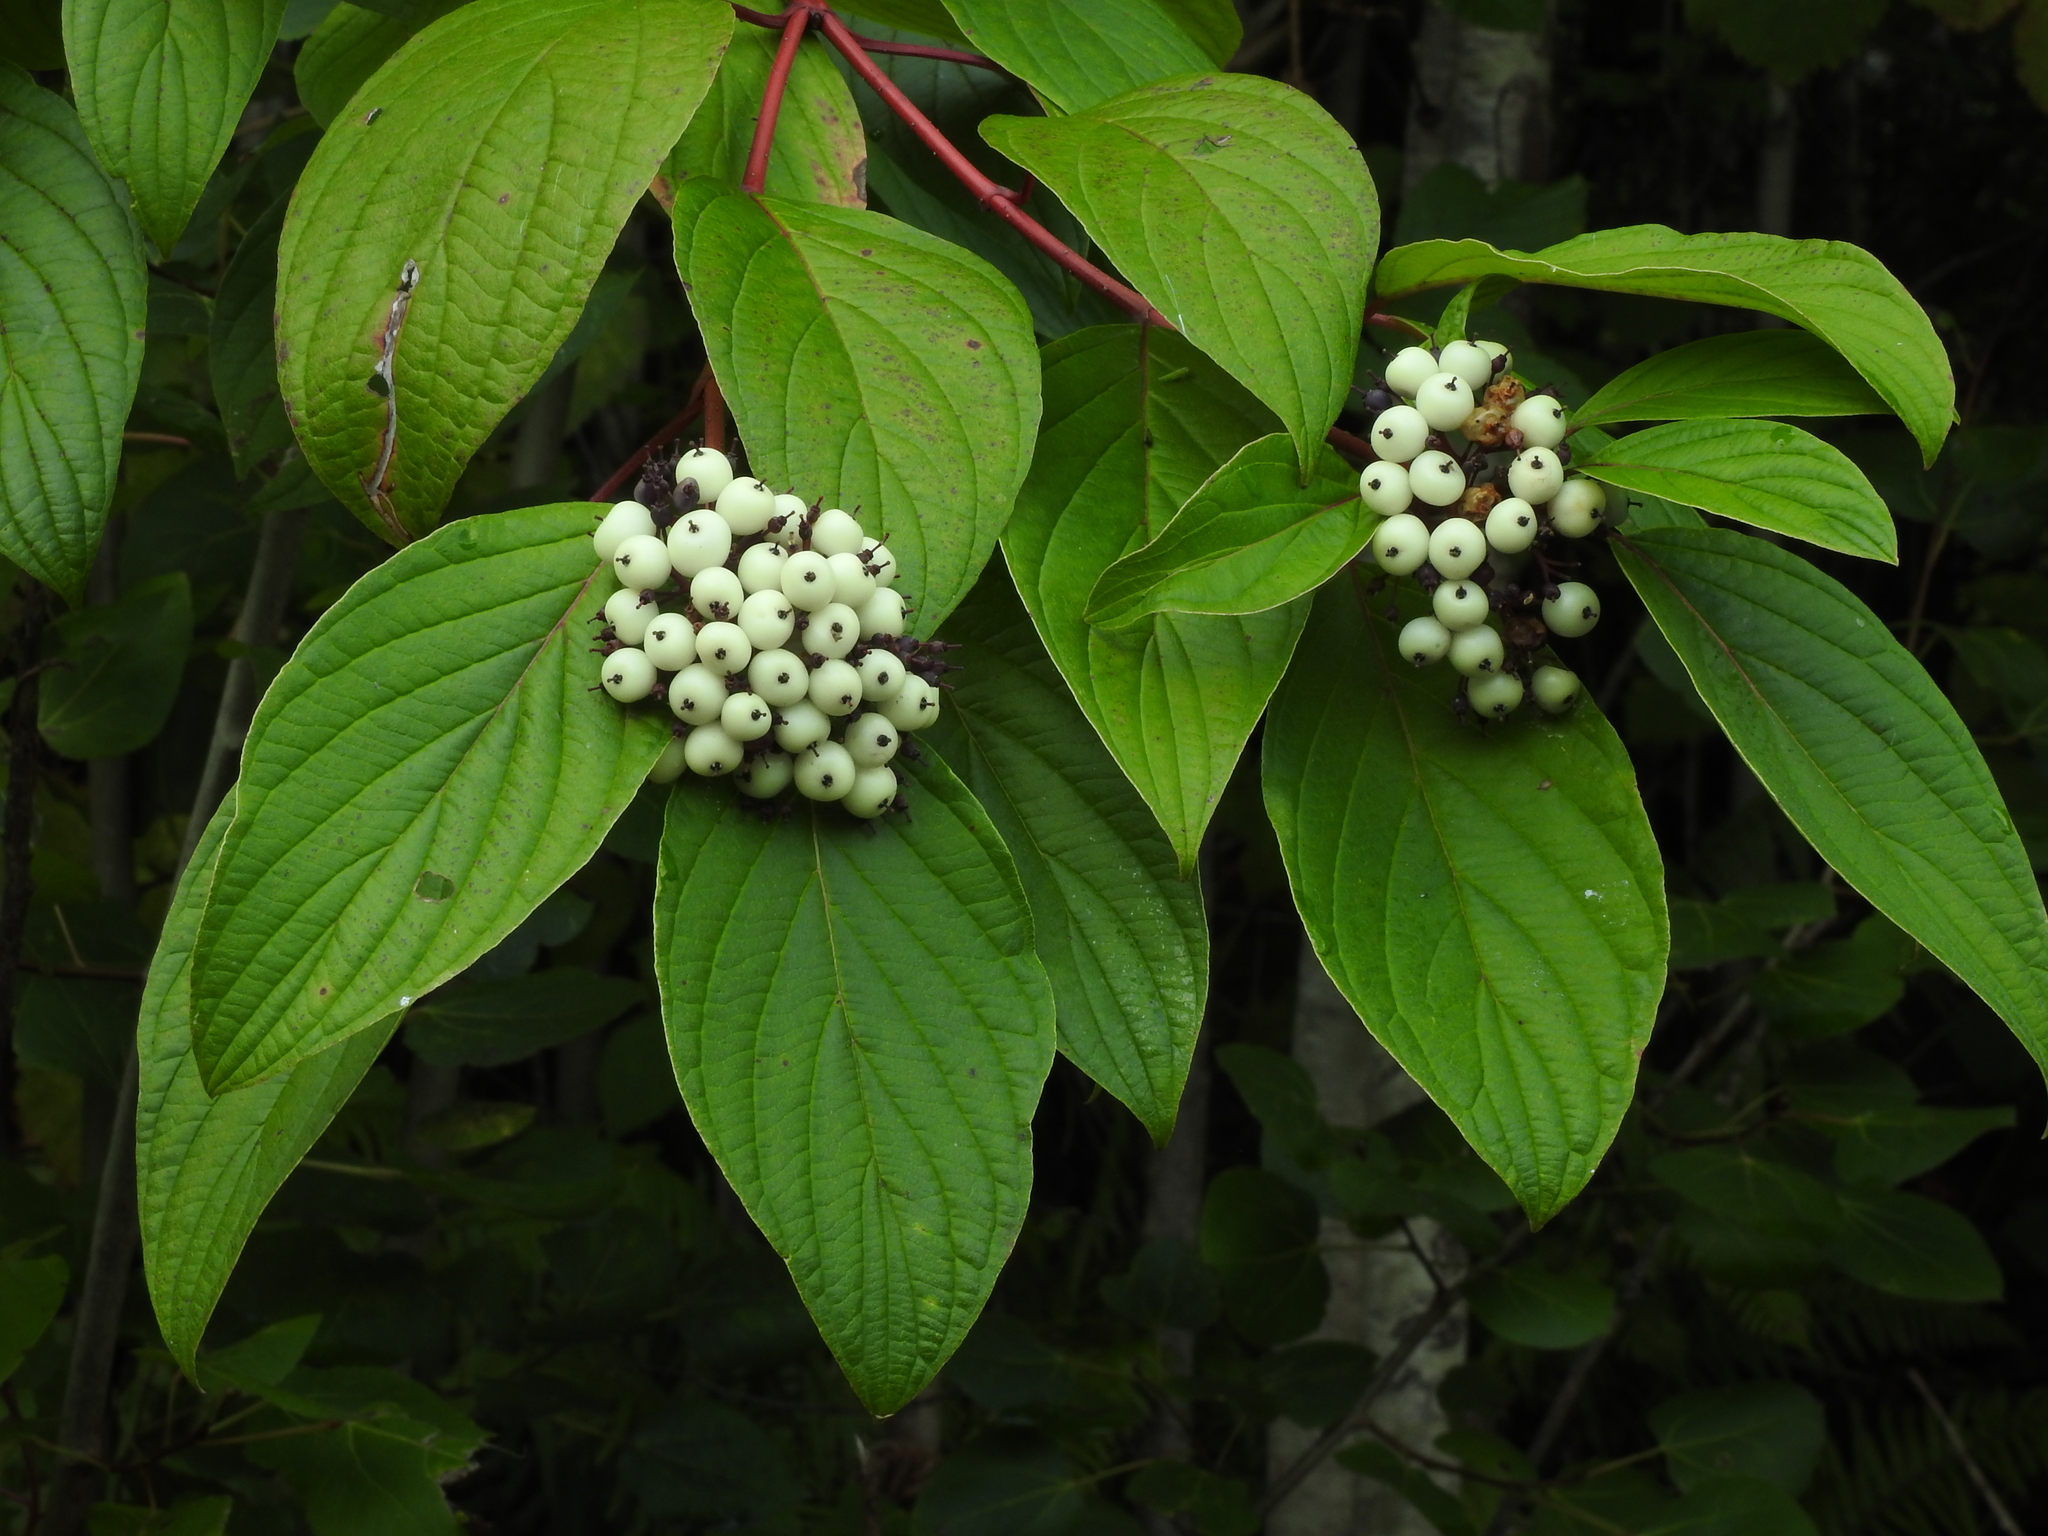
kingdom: Plantae
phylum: Tracheophyta
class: Magnoliopsida
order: Cornales
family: Cornaceae
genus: Cornus
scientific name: Cornus sericea
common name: Red-osier dogwood
